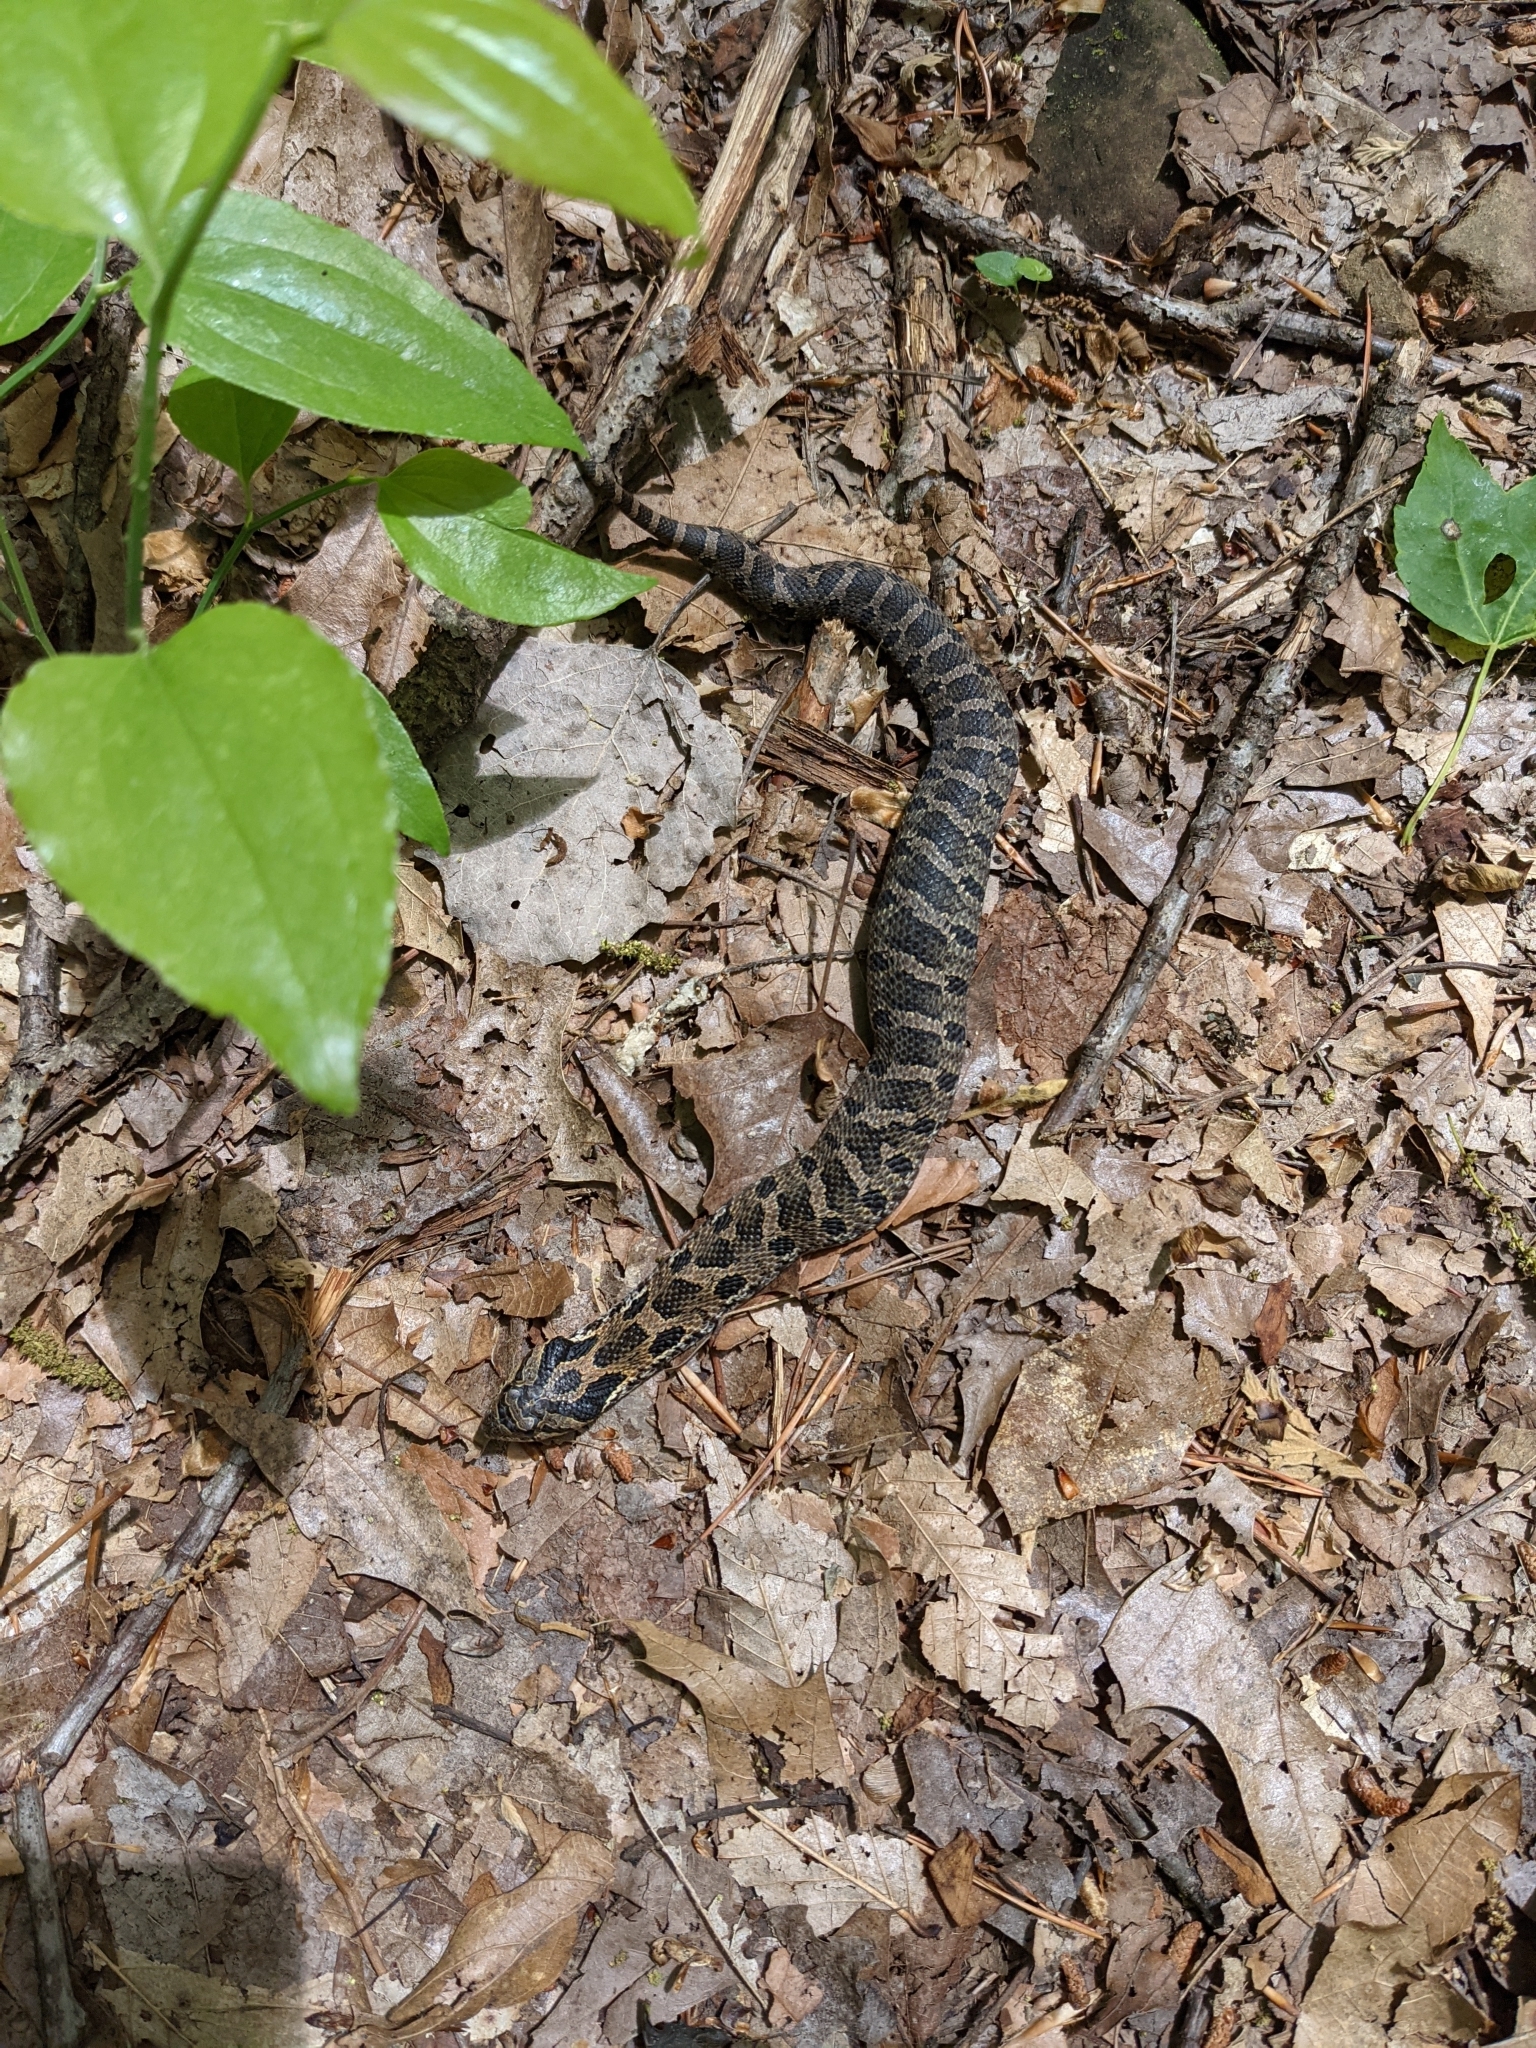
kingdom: Animalia
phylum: Chordata
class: Squamata
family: Colubridae
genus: Heterodon
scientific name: Heterodon platirhinos
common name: Eastern hognose snake
